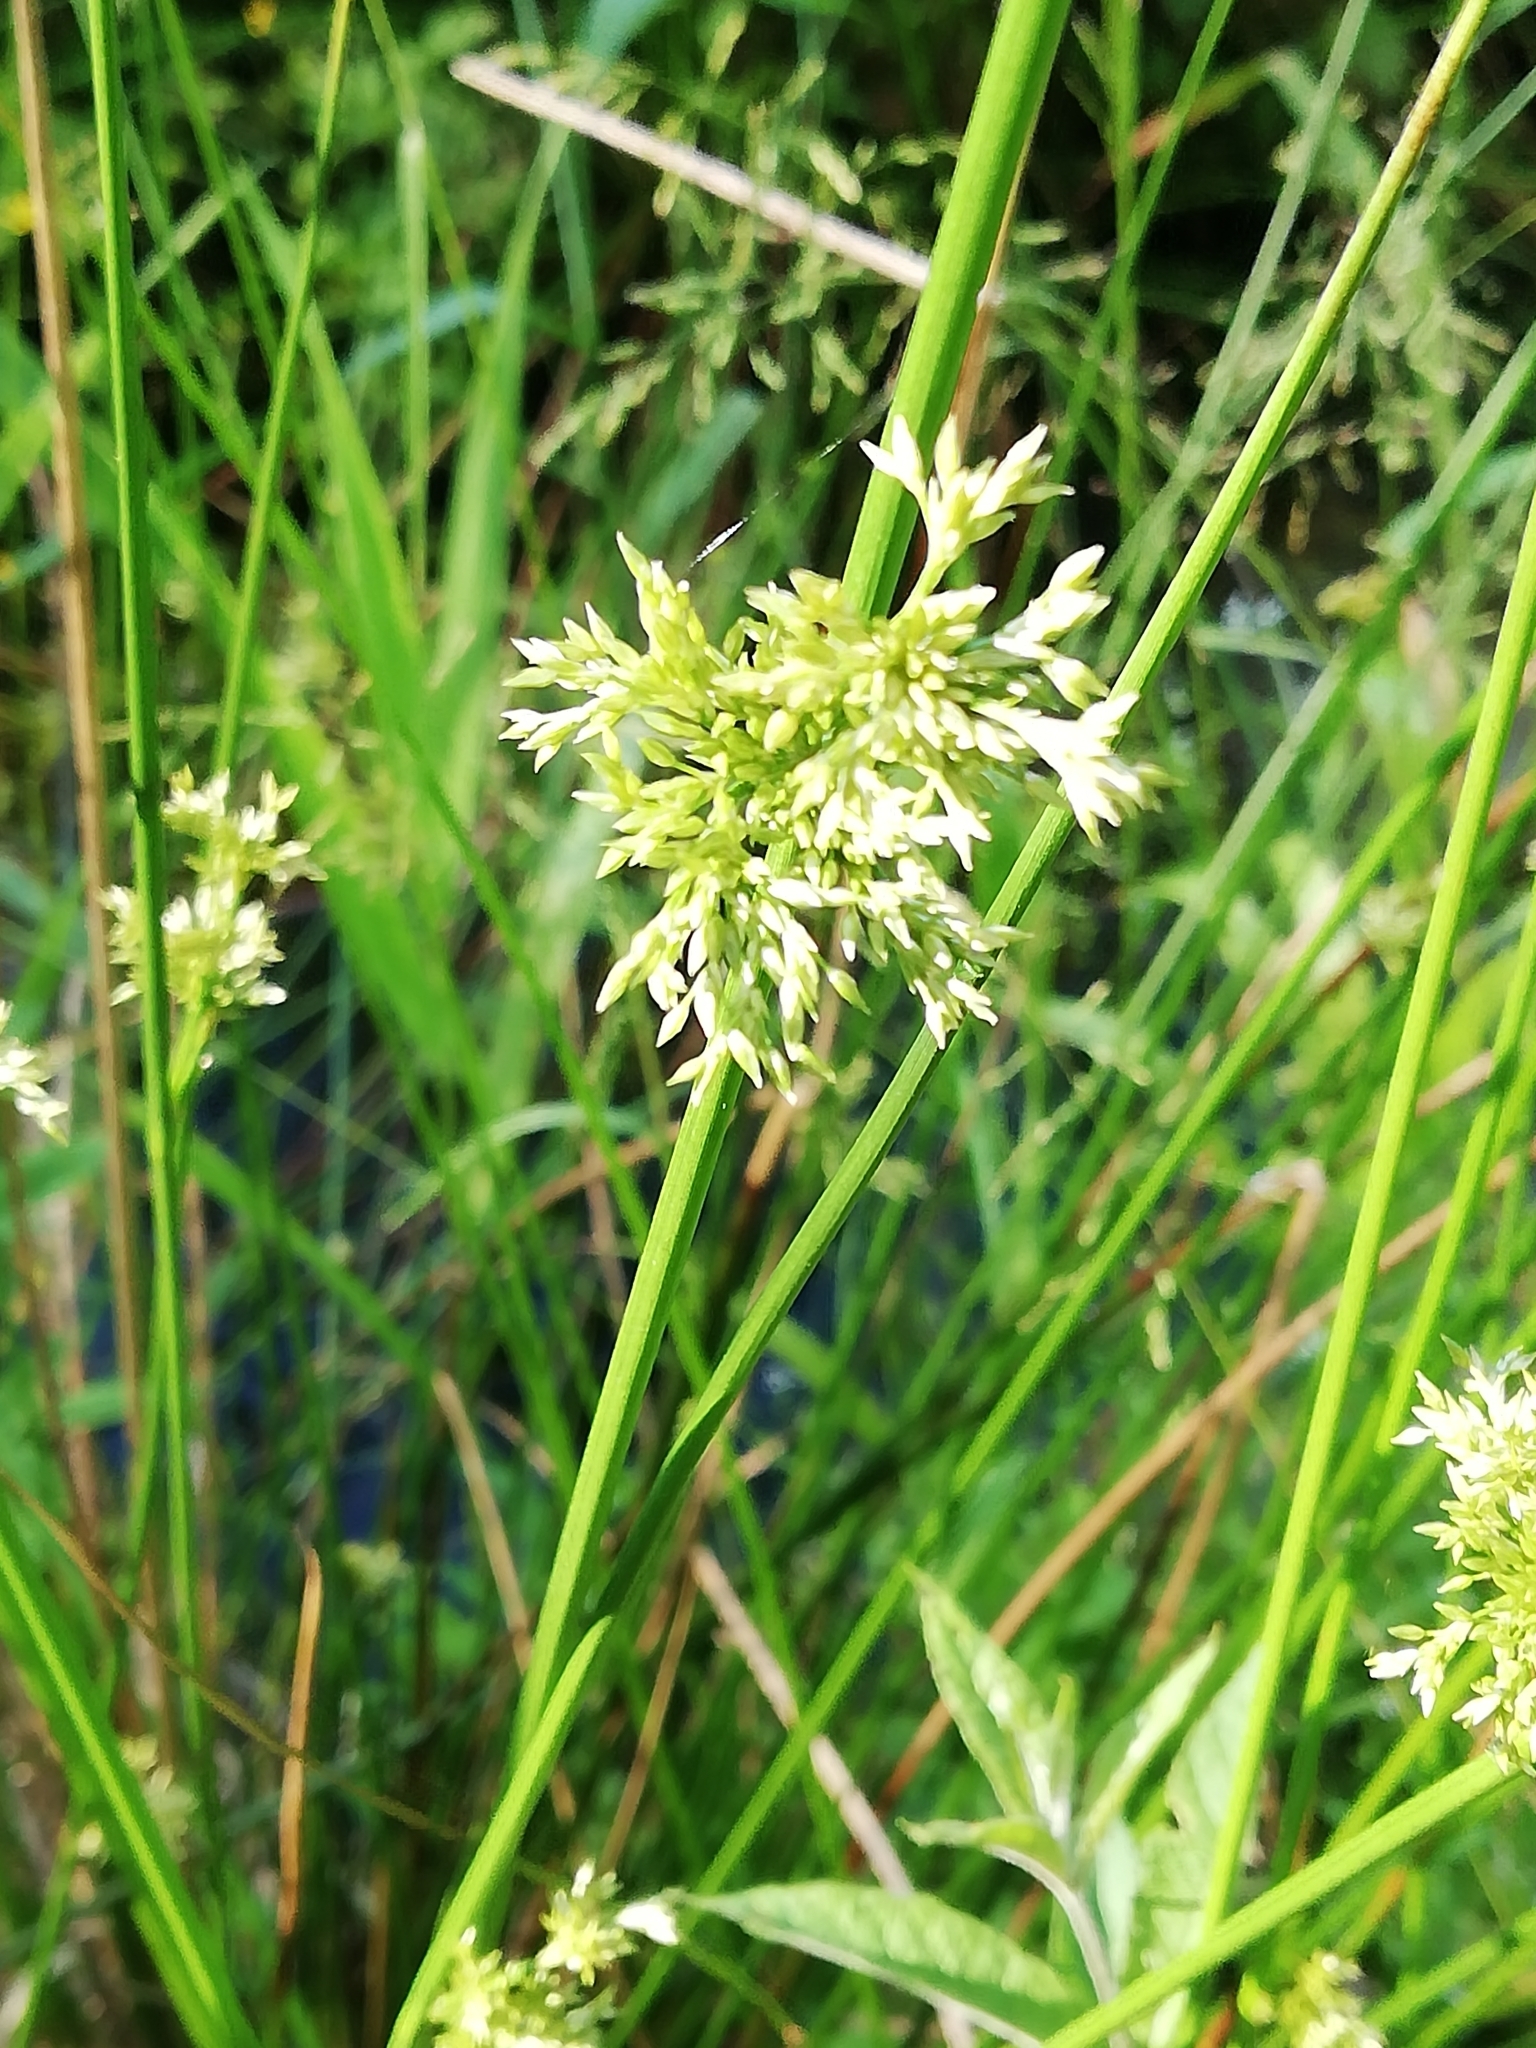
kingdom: Plantae
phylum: Tracheophyta
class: Liliopsida
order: Poales
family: Juncaceae
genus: Juncus
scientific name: Juncus effusus
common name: Soft rush
